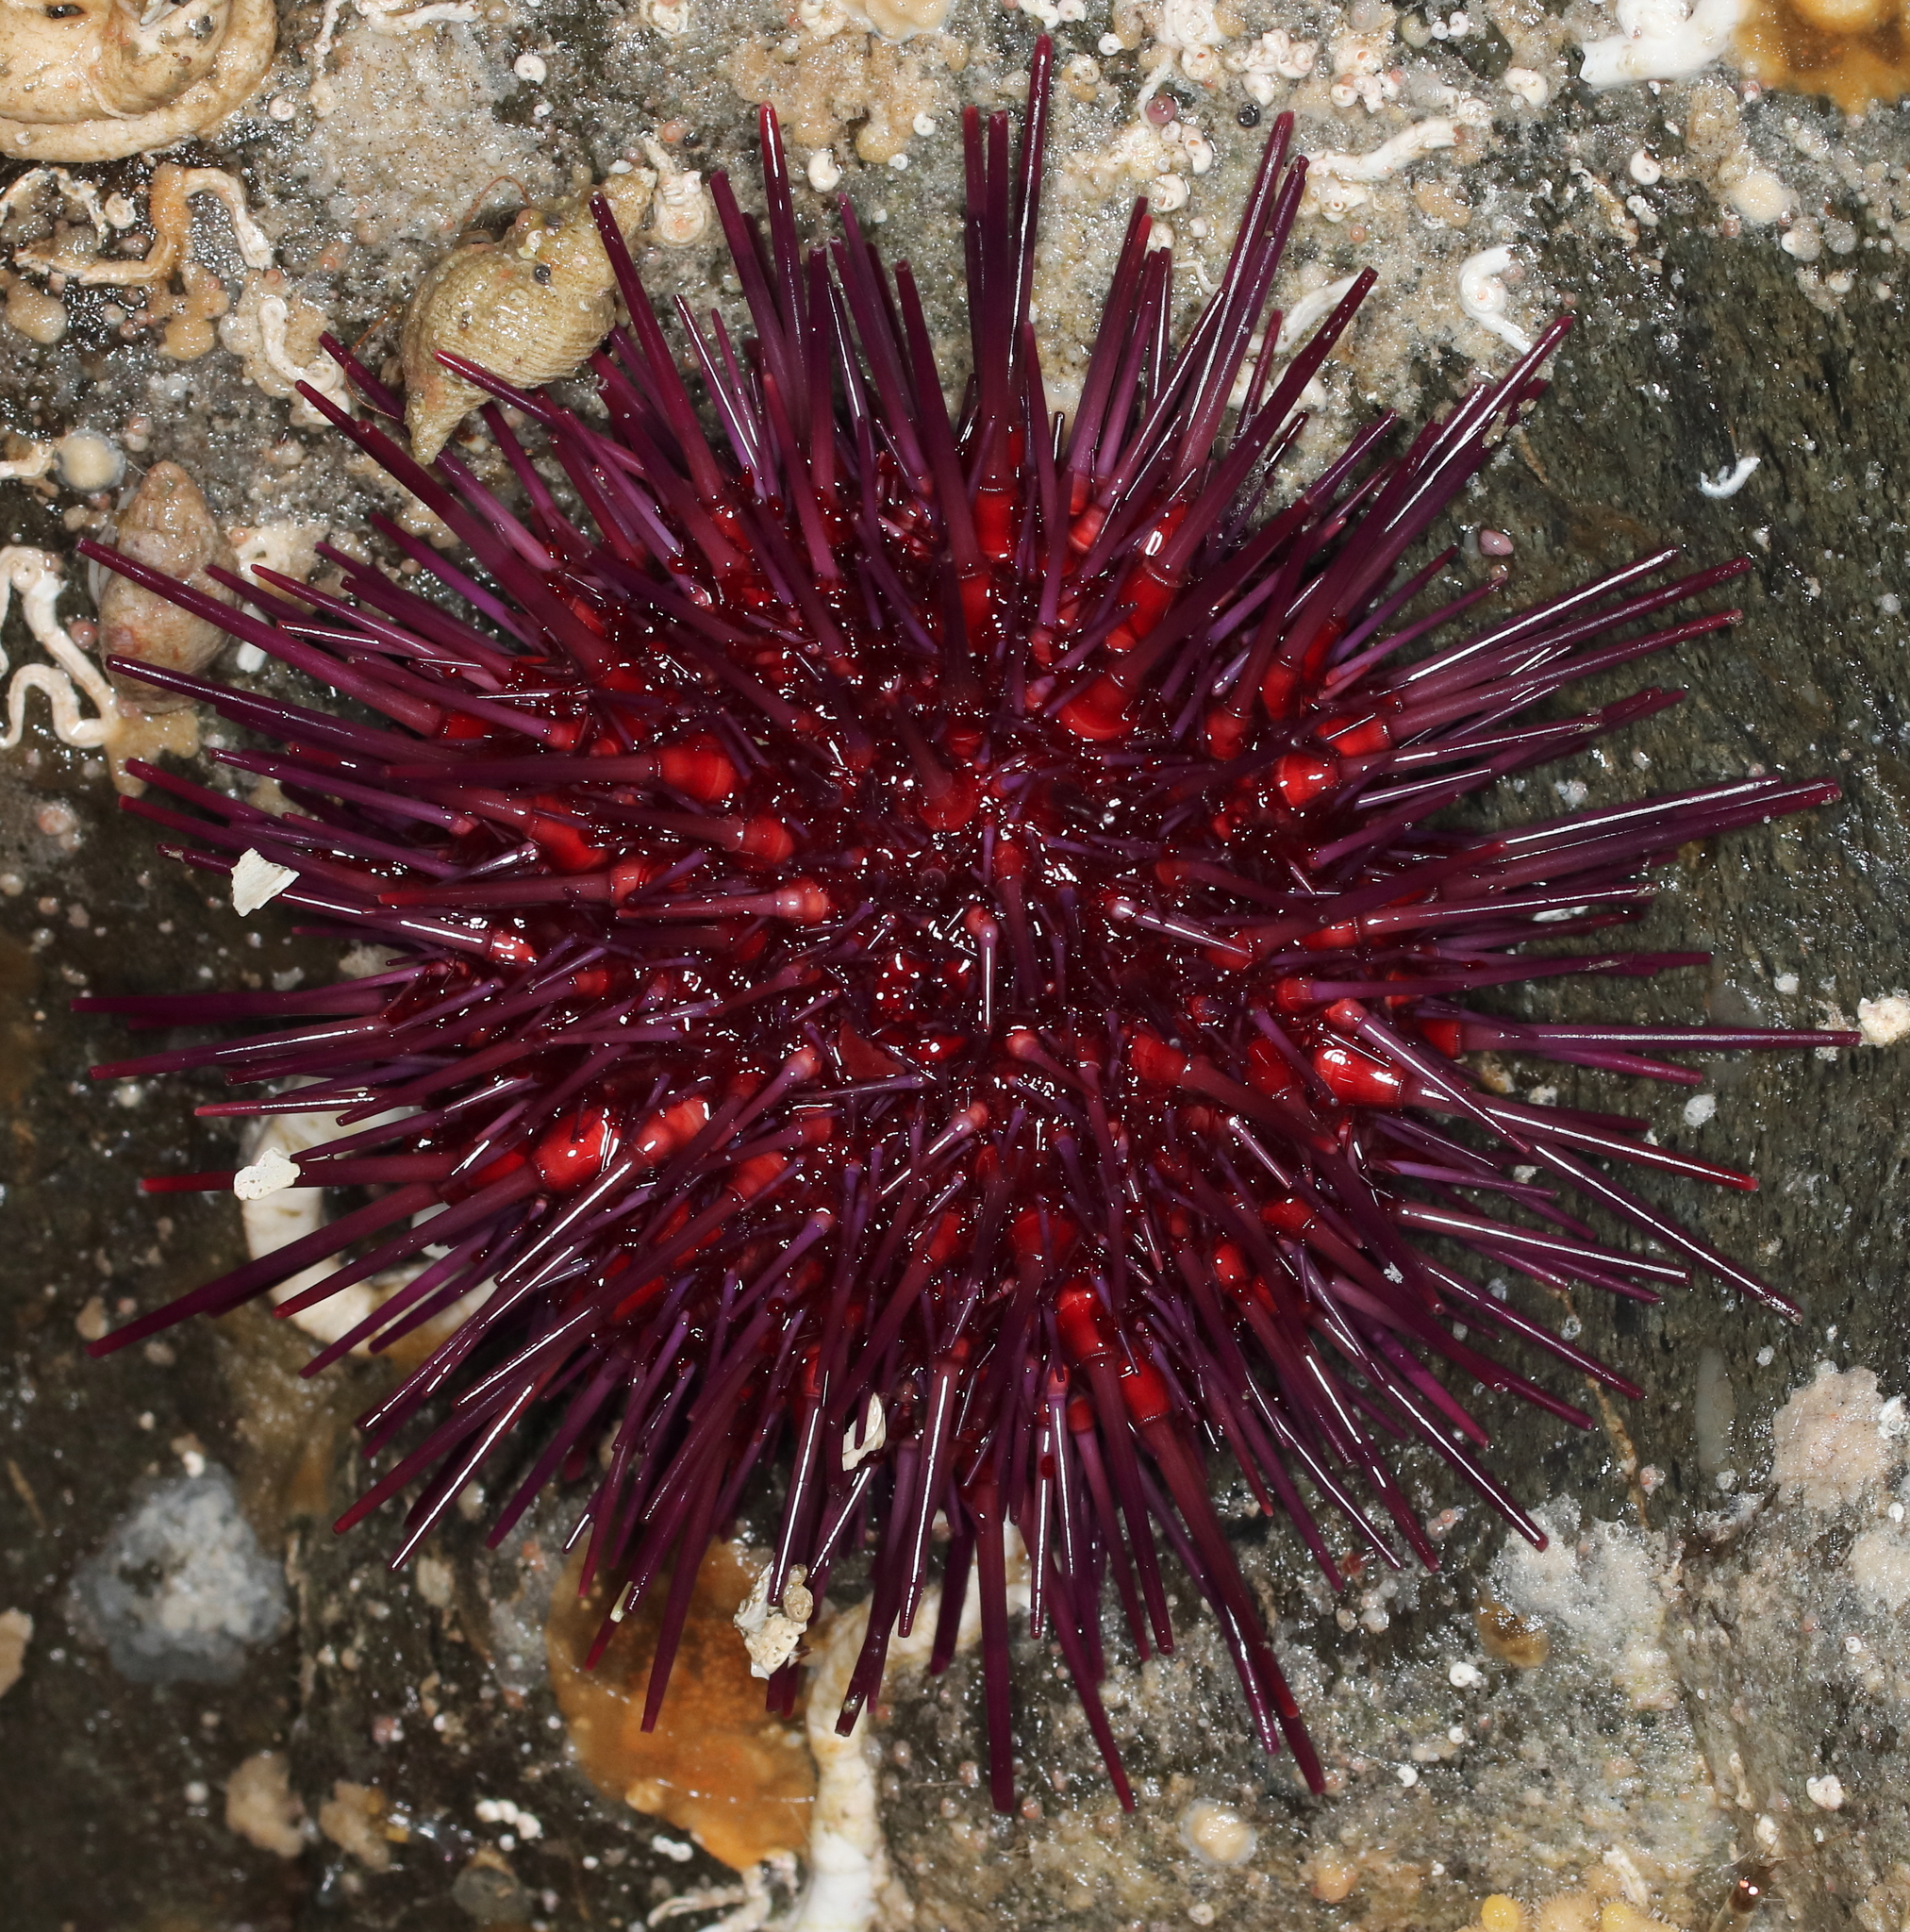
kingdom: Animalia
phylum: Echinodermata
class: Echinoidea
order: Camarodonta
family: Strongylocentrotidae
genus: Mesocentrotus
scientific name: Mesocentrotus franciscanus
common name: Red sea urchin
